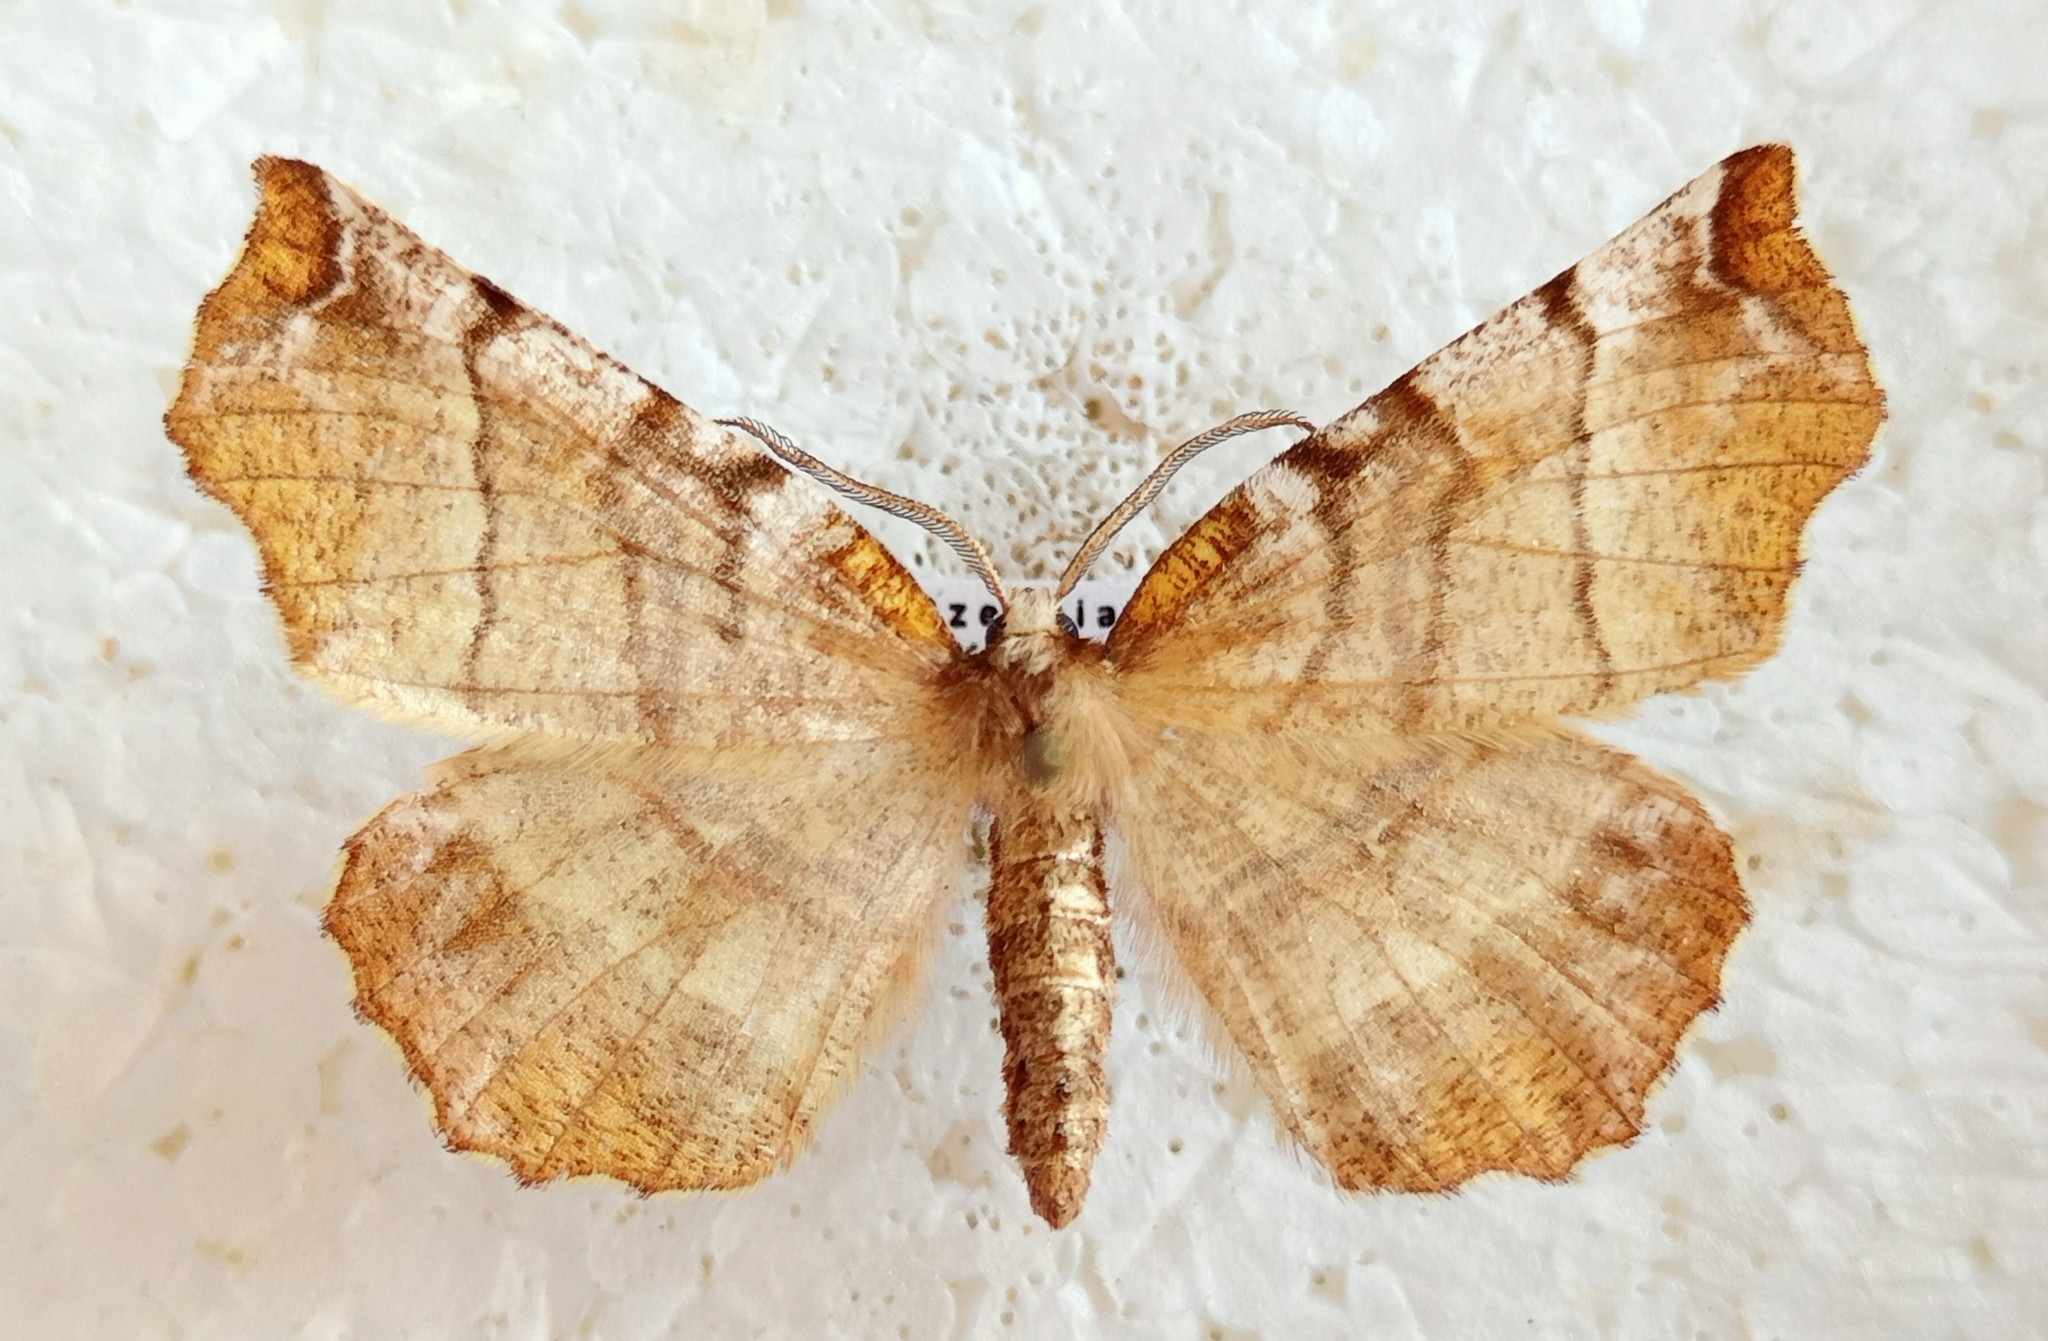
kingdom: Animalia
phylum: Arthropoda
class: Insecta
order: Lepidoptera
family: Geometridae
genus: Selenia
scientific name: Selenia dentaria
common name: Early thorn
